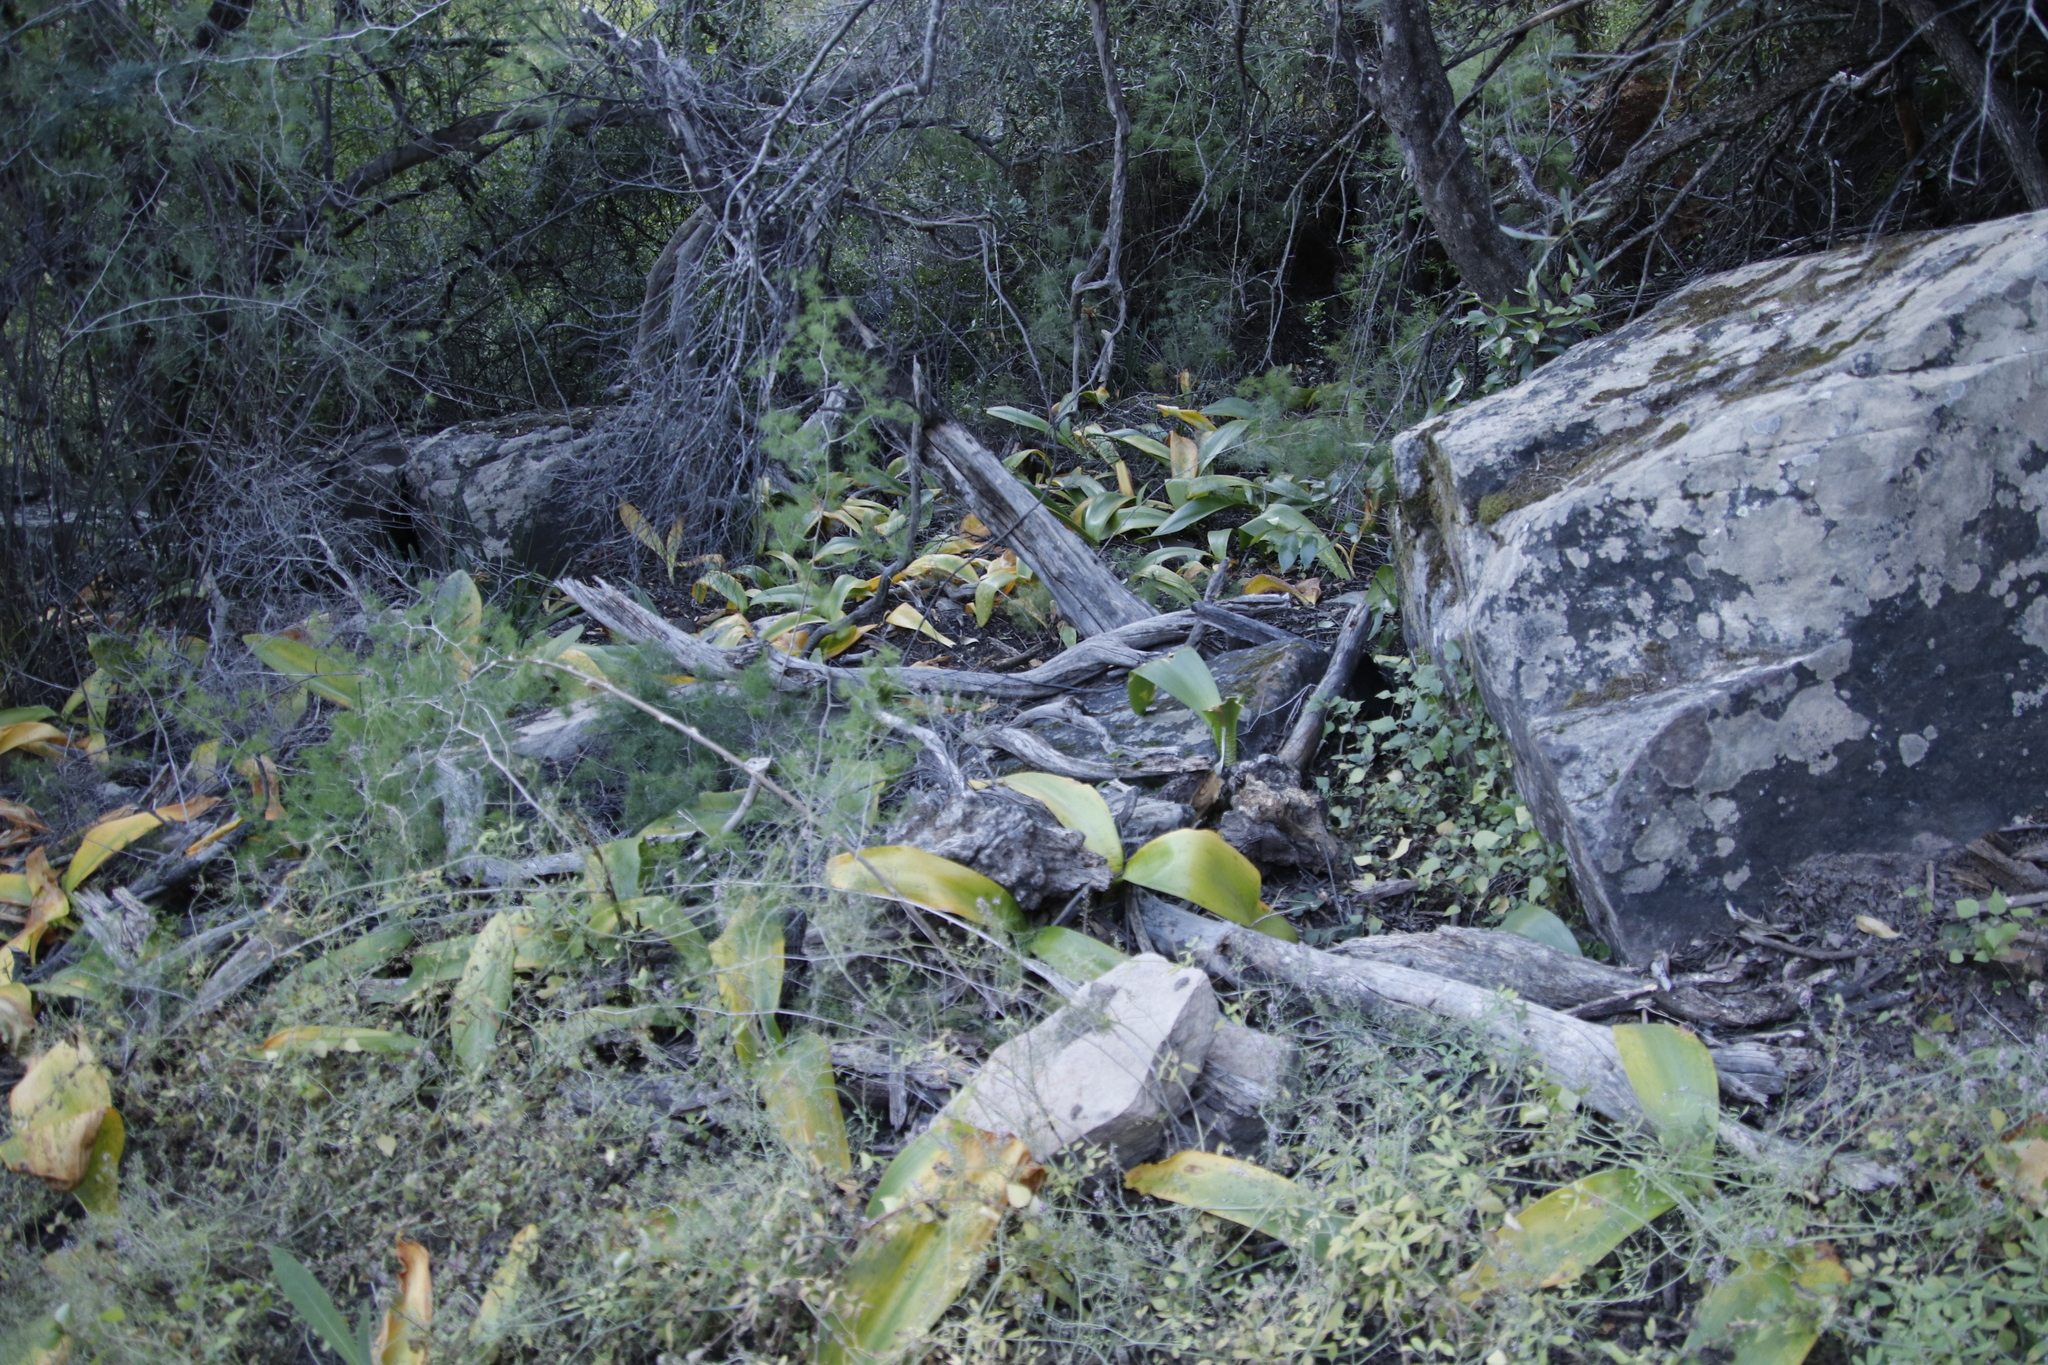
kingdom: Plantae
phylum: Tracheophyta
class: Liliopsida
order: Asparagales
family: Amaryllidaceae
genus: Haemanthus
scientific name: Haemanthus coccineus
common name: Cape-tulip
